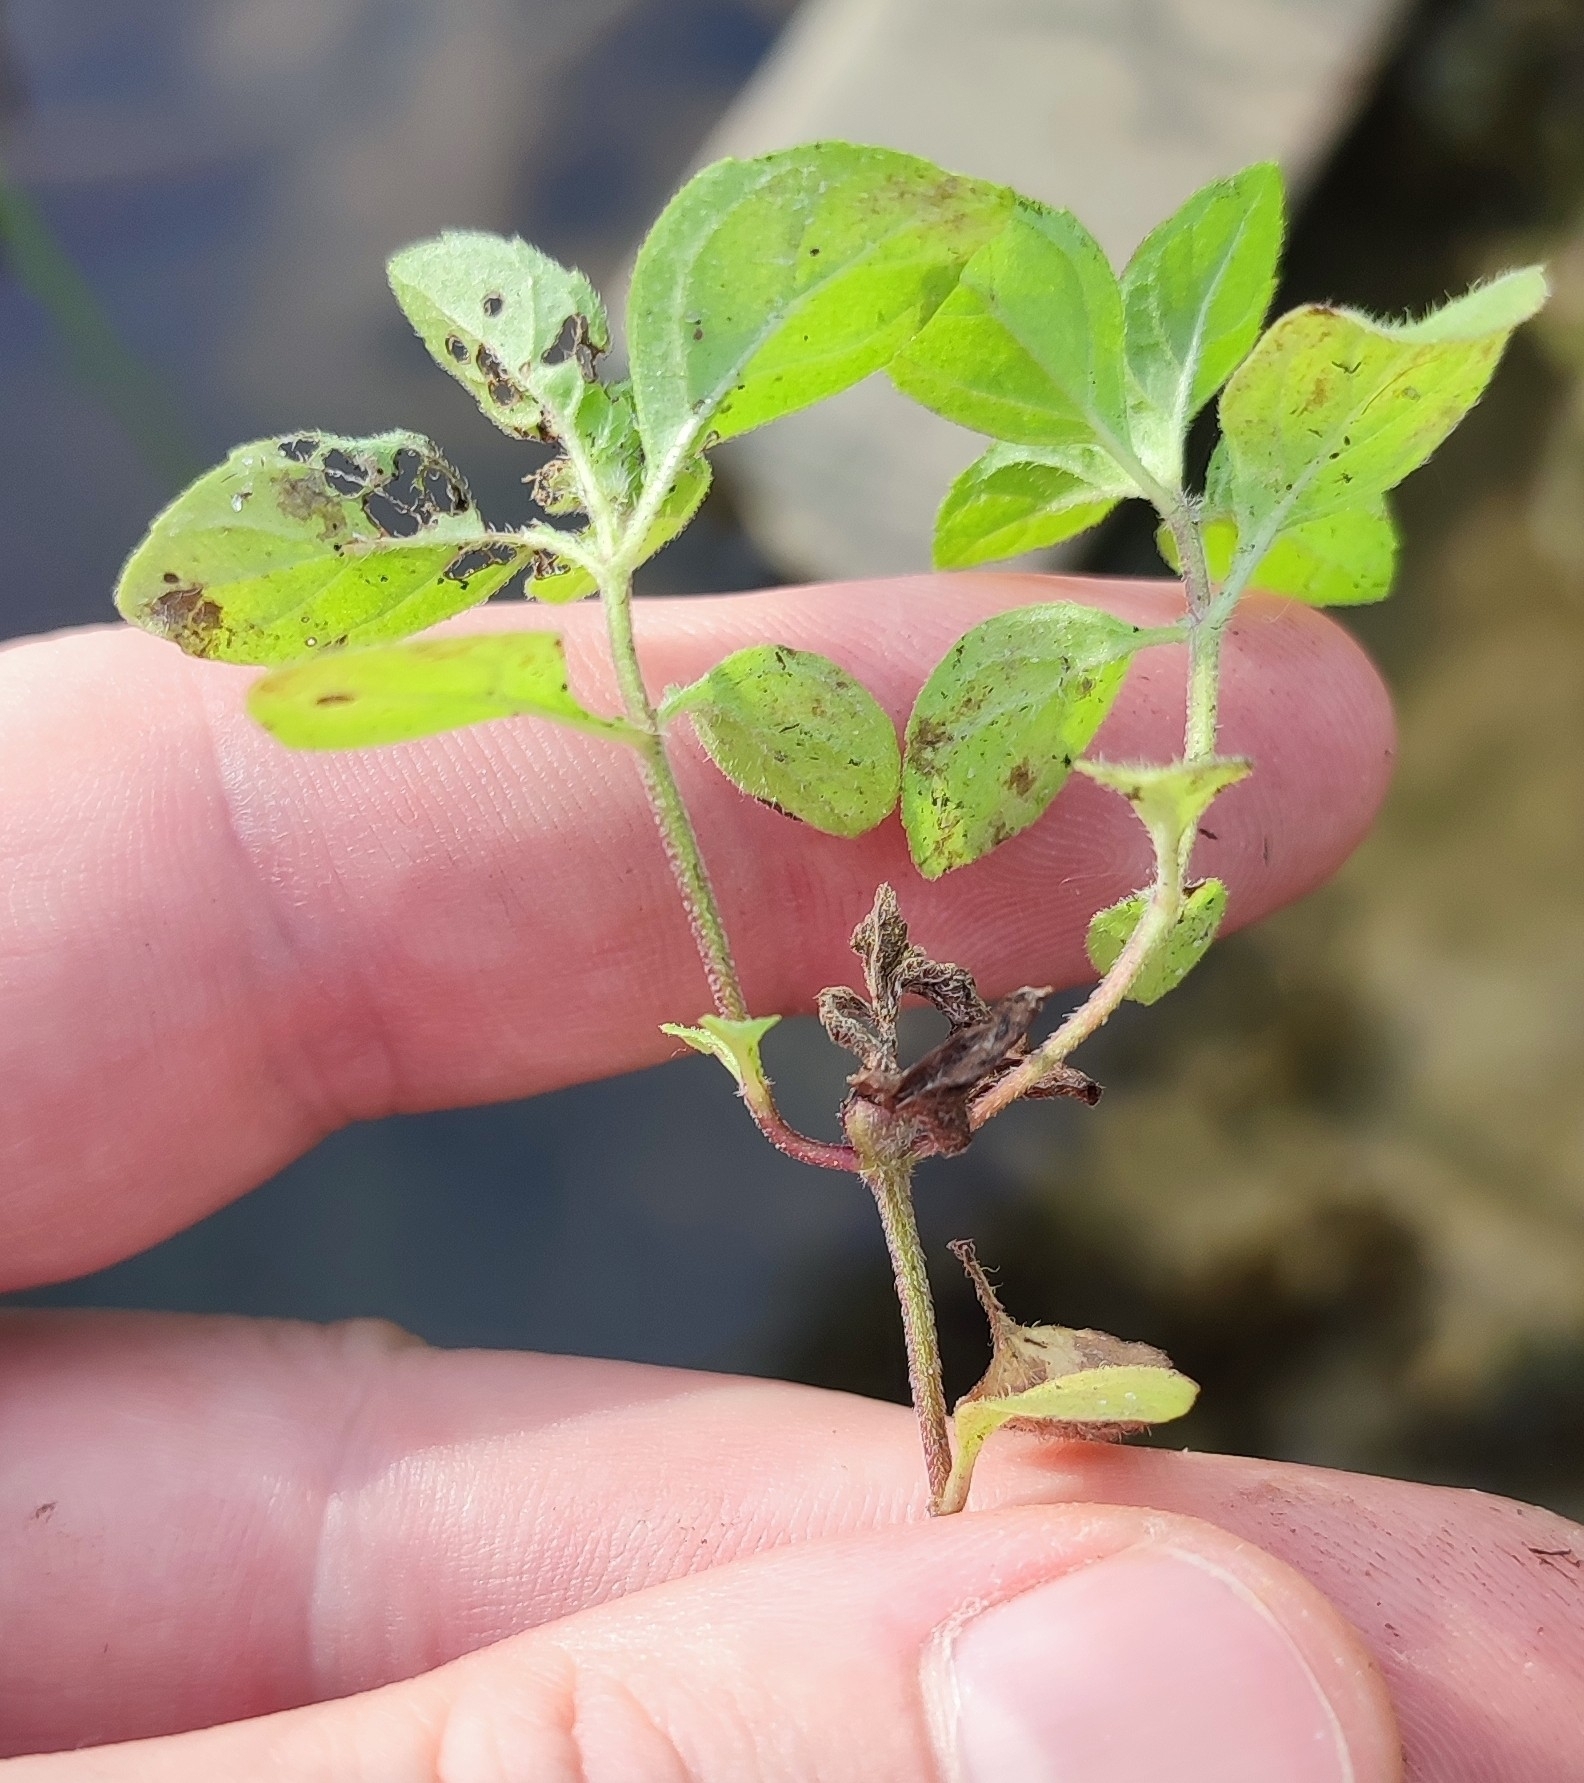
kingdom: Plantae
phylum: Tracheophyta
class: Magnoliopsida
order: Lamiales
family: Lamiaceae
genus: Mentha
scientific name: Mentha arvensis
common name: Corn mint
